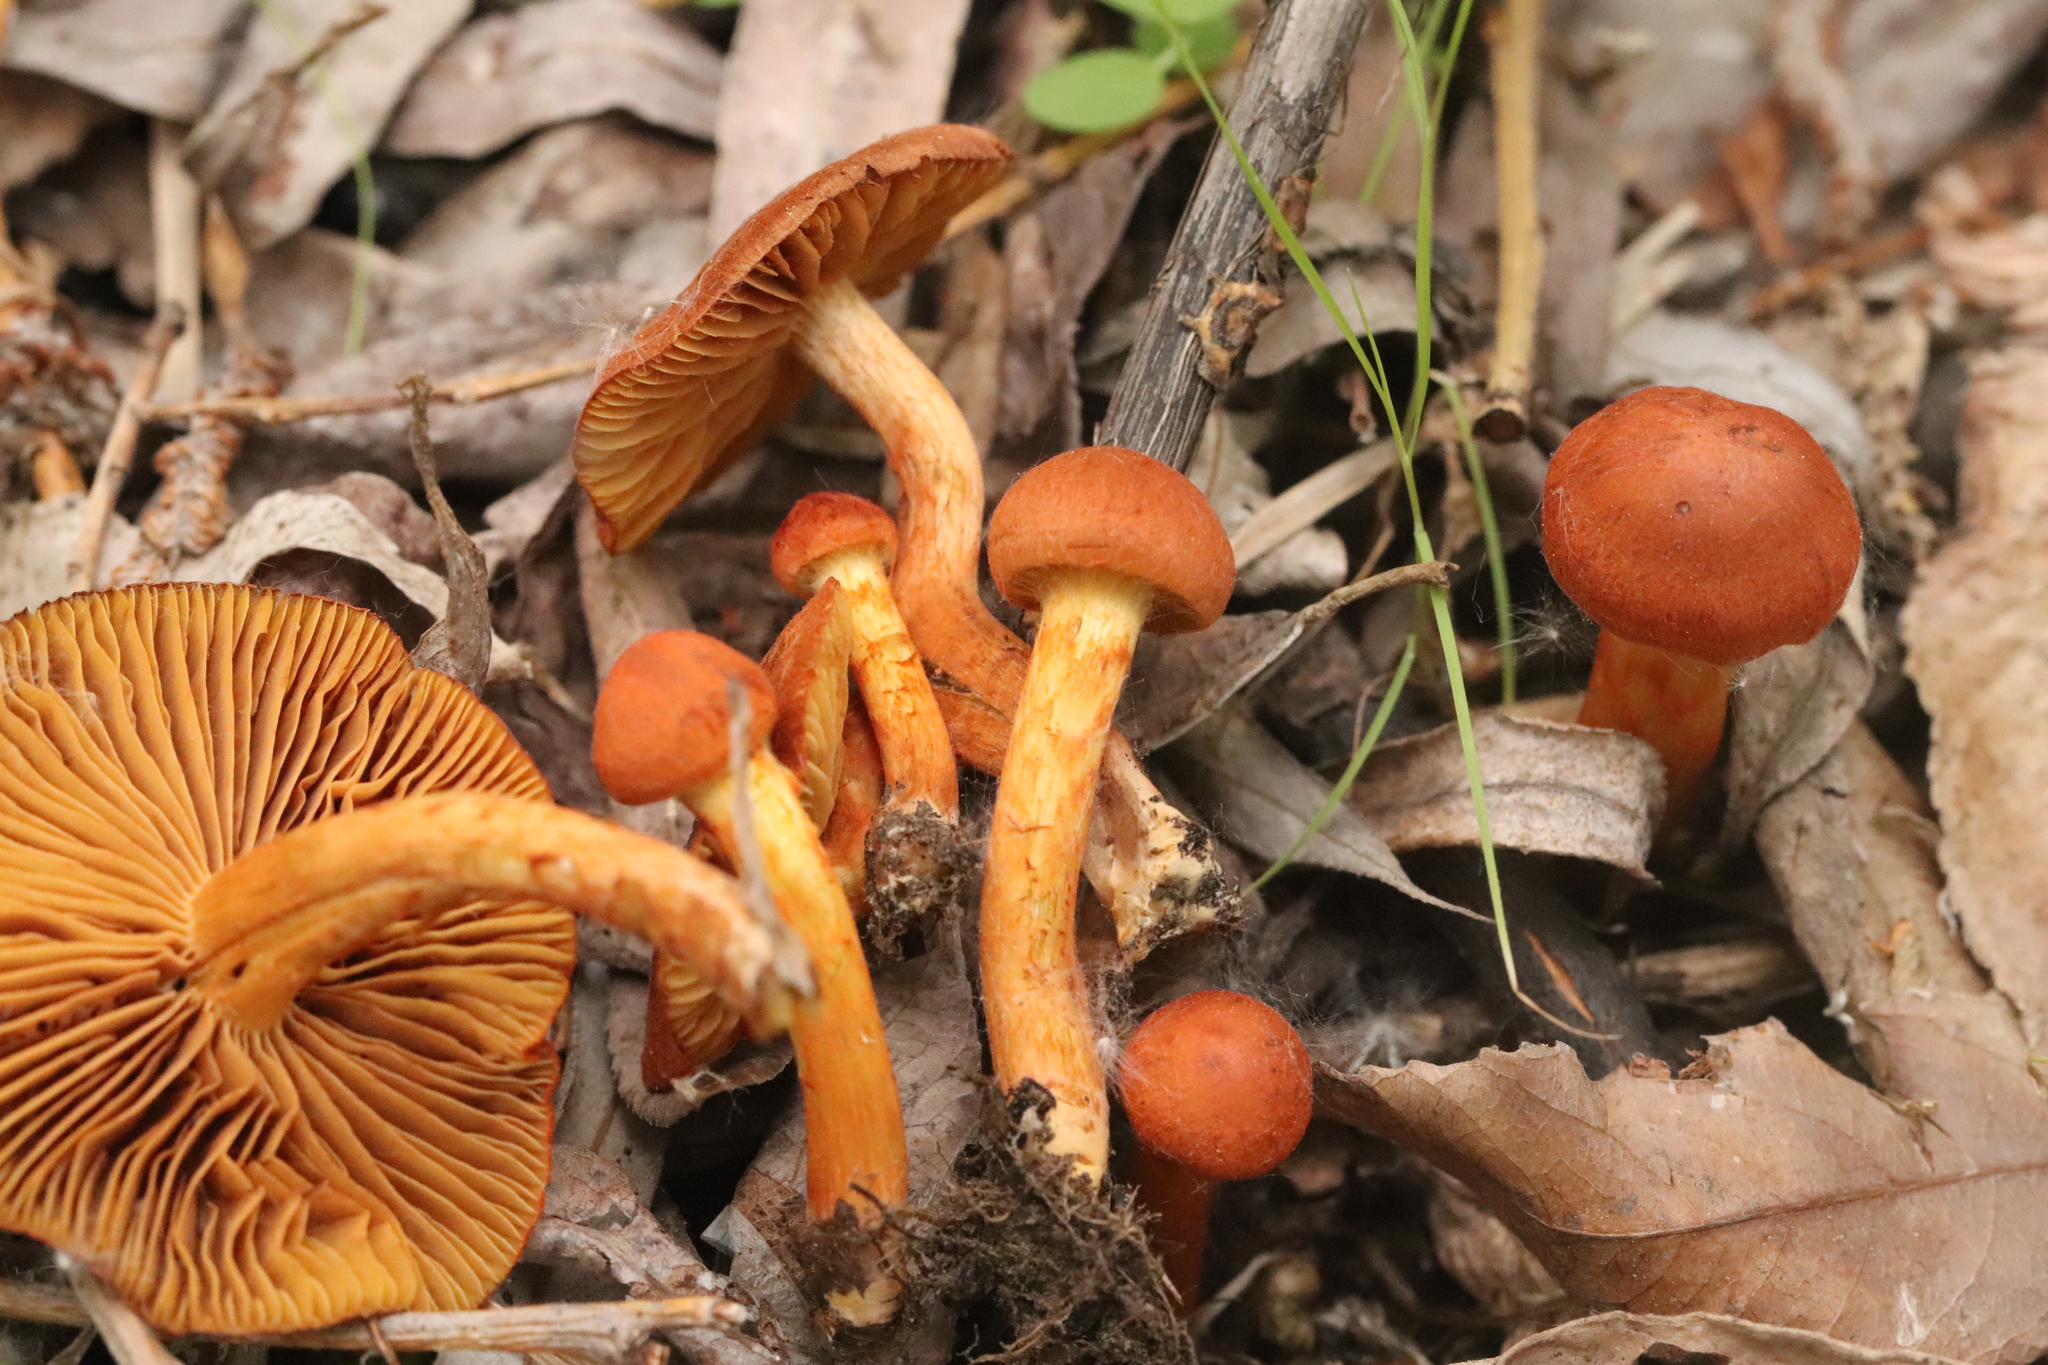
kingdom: Fungi
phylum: Basidiomycota
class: Agaricomycetes
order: Agaricales
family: Cortinariaceae
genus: Cortinarius
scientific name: Cortinarius uliginosus
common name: Marsh webcap
